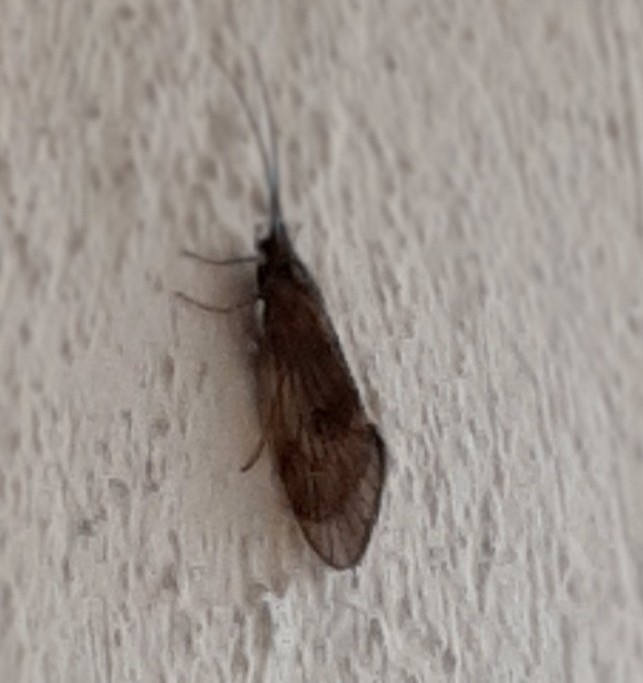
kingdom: Animalia
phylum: Arthropoda
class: Insecta
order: Trichoptera
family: Brachycentridae
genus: Brachycentrus
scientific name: Brachycentrus subnubilis
